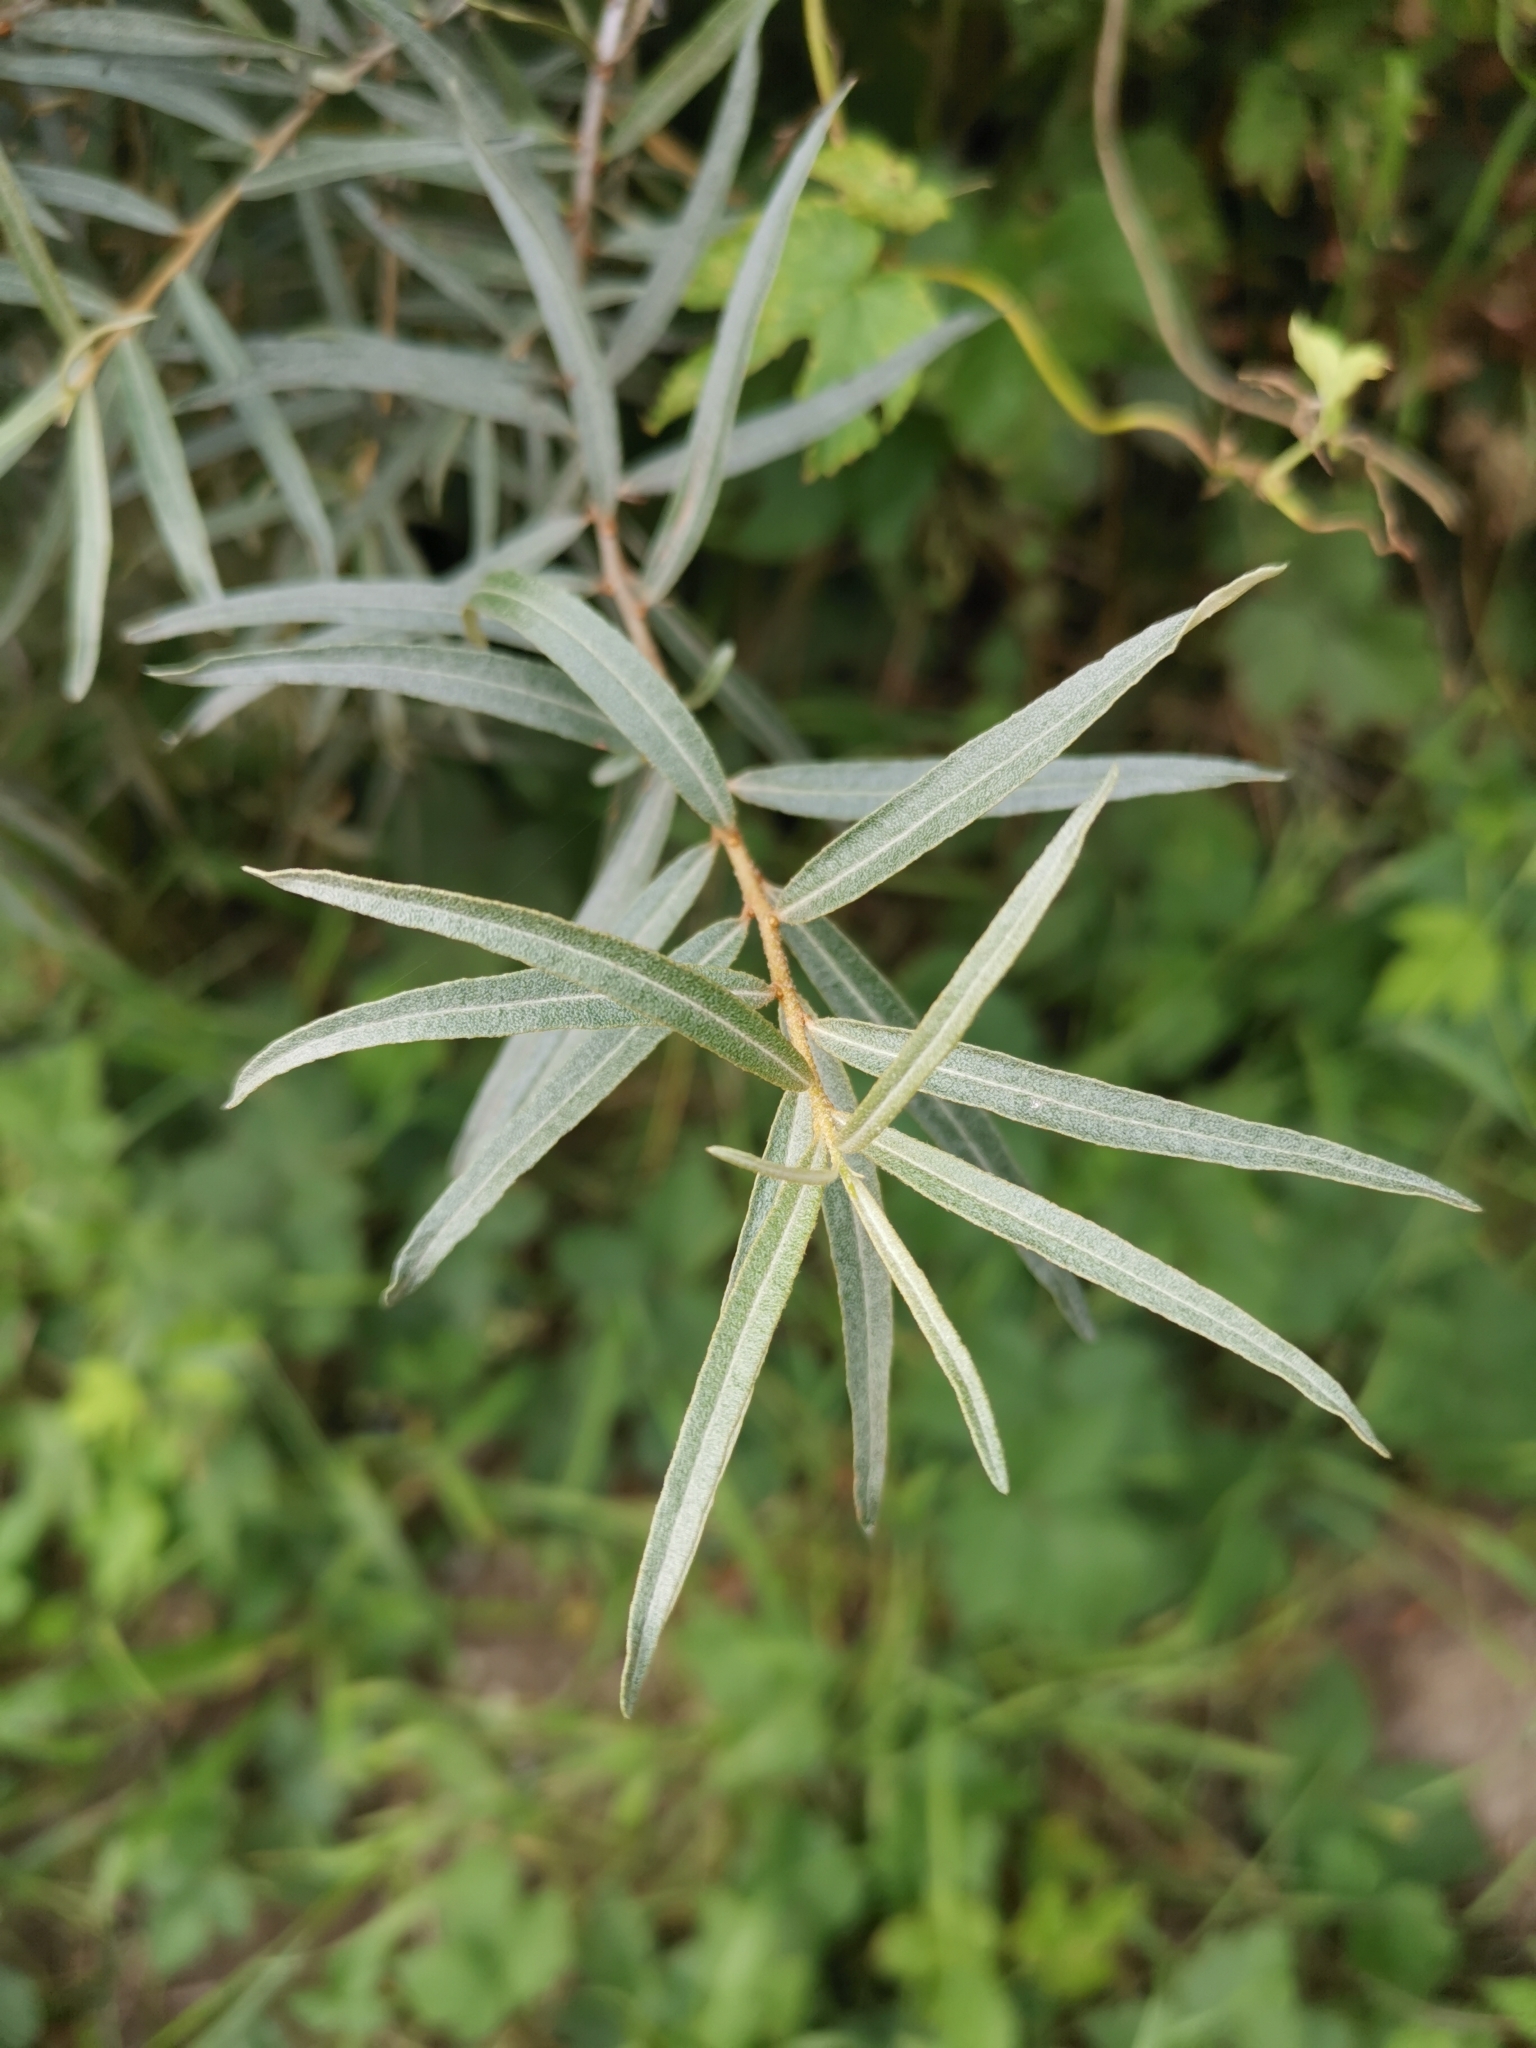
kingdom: Plantae
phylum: Tracheophyta
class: Magnoliopsida
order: Rosales
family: Elaeagnaceae
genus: Hippophae
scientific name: Hippophae rhamnoides
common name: Sea-buckthorn
